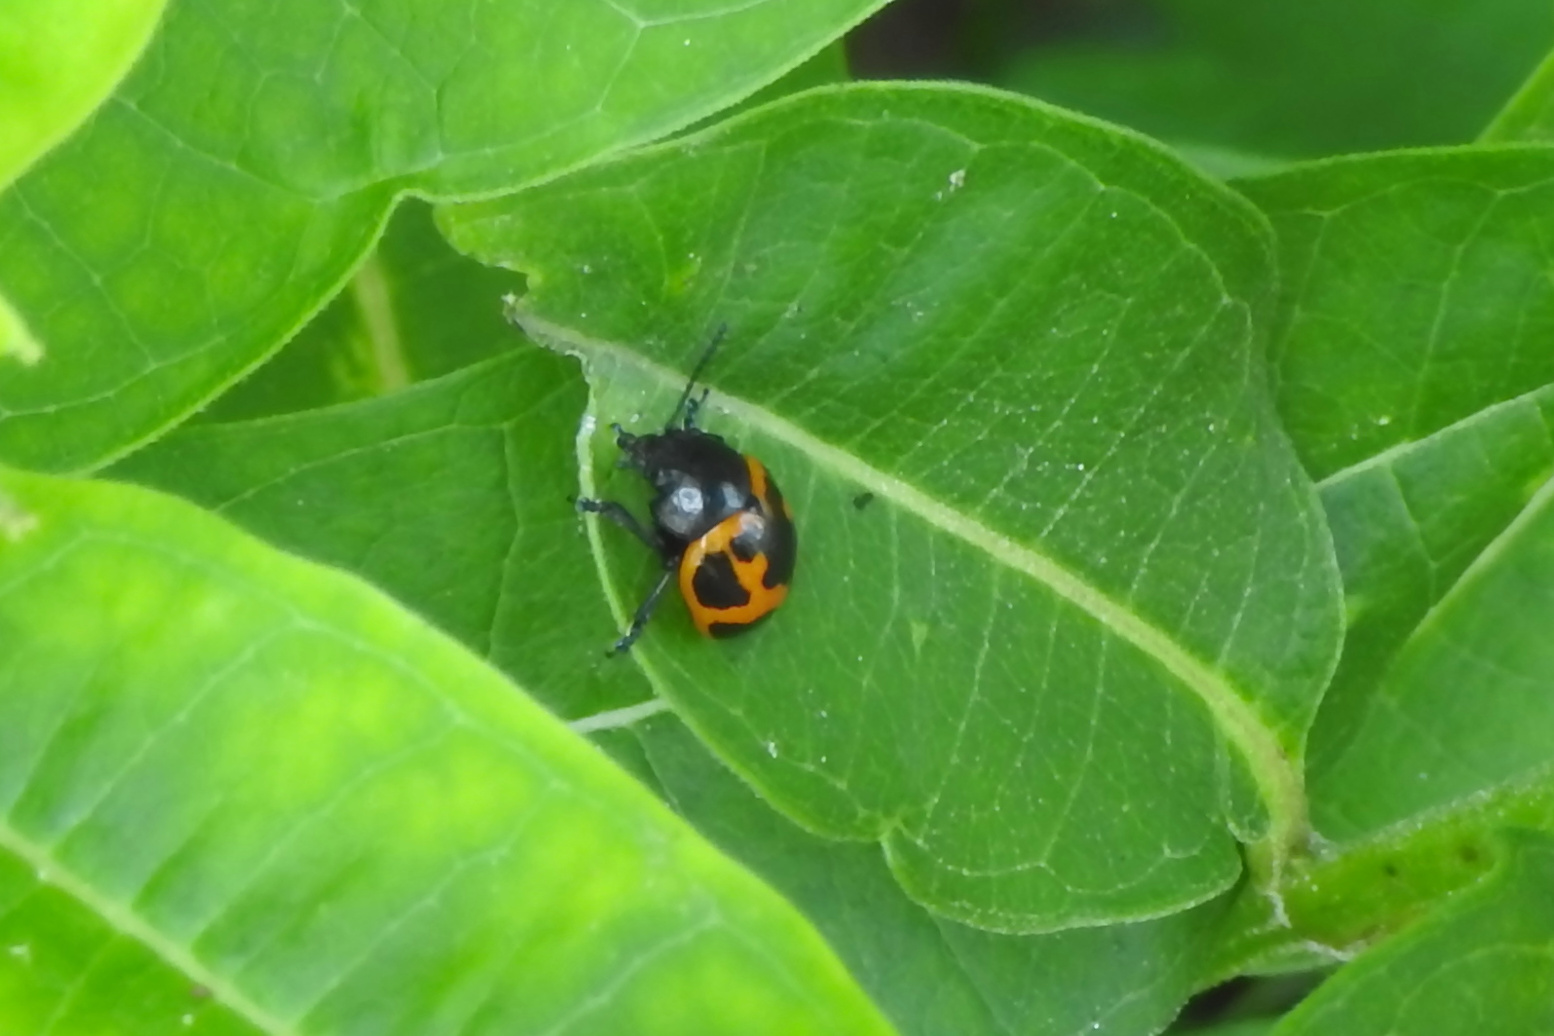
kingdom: Animalia
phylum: Arthropoda
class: Insecta
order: Coleoptera
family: Chrysomelidae
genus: Labidomera
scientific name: Labidomera clivicollis
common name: Swamp milkweed leaf beetle
